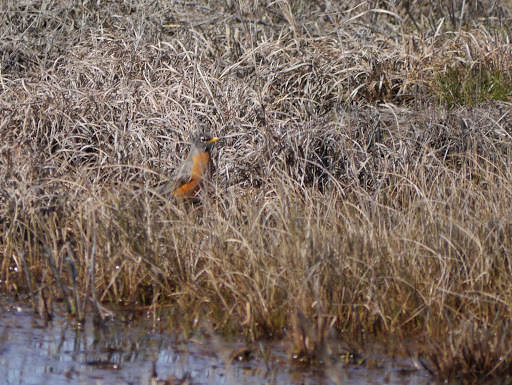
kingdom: Animalia
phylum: Chordata
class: Aves
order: Passeriformes
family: Turdidae
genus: Turdus
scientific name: Turdus migratorius
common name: American robin
